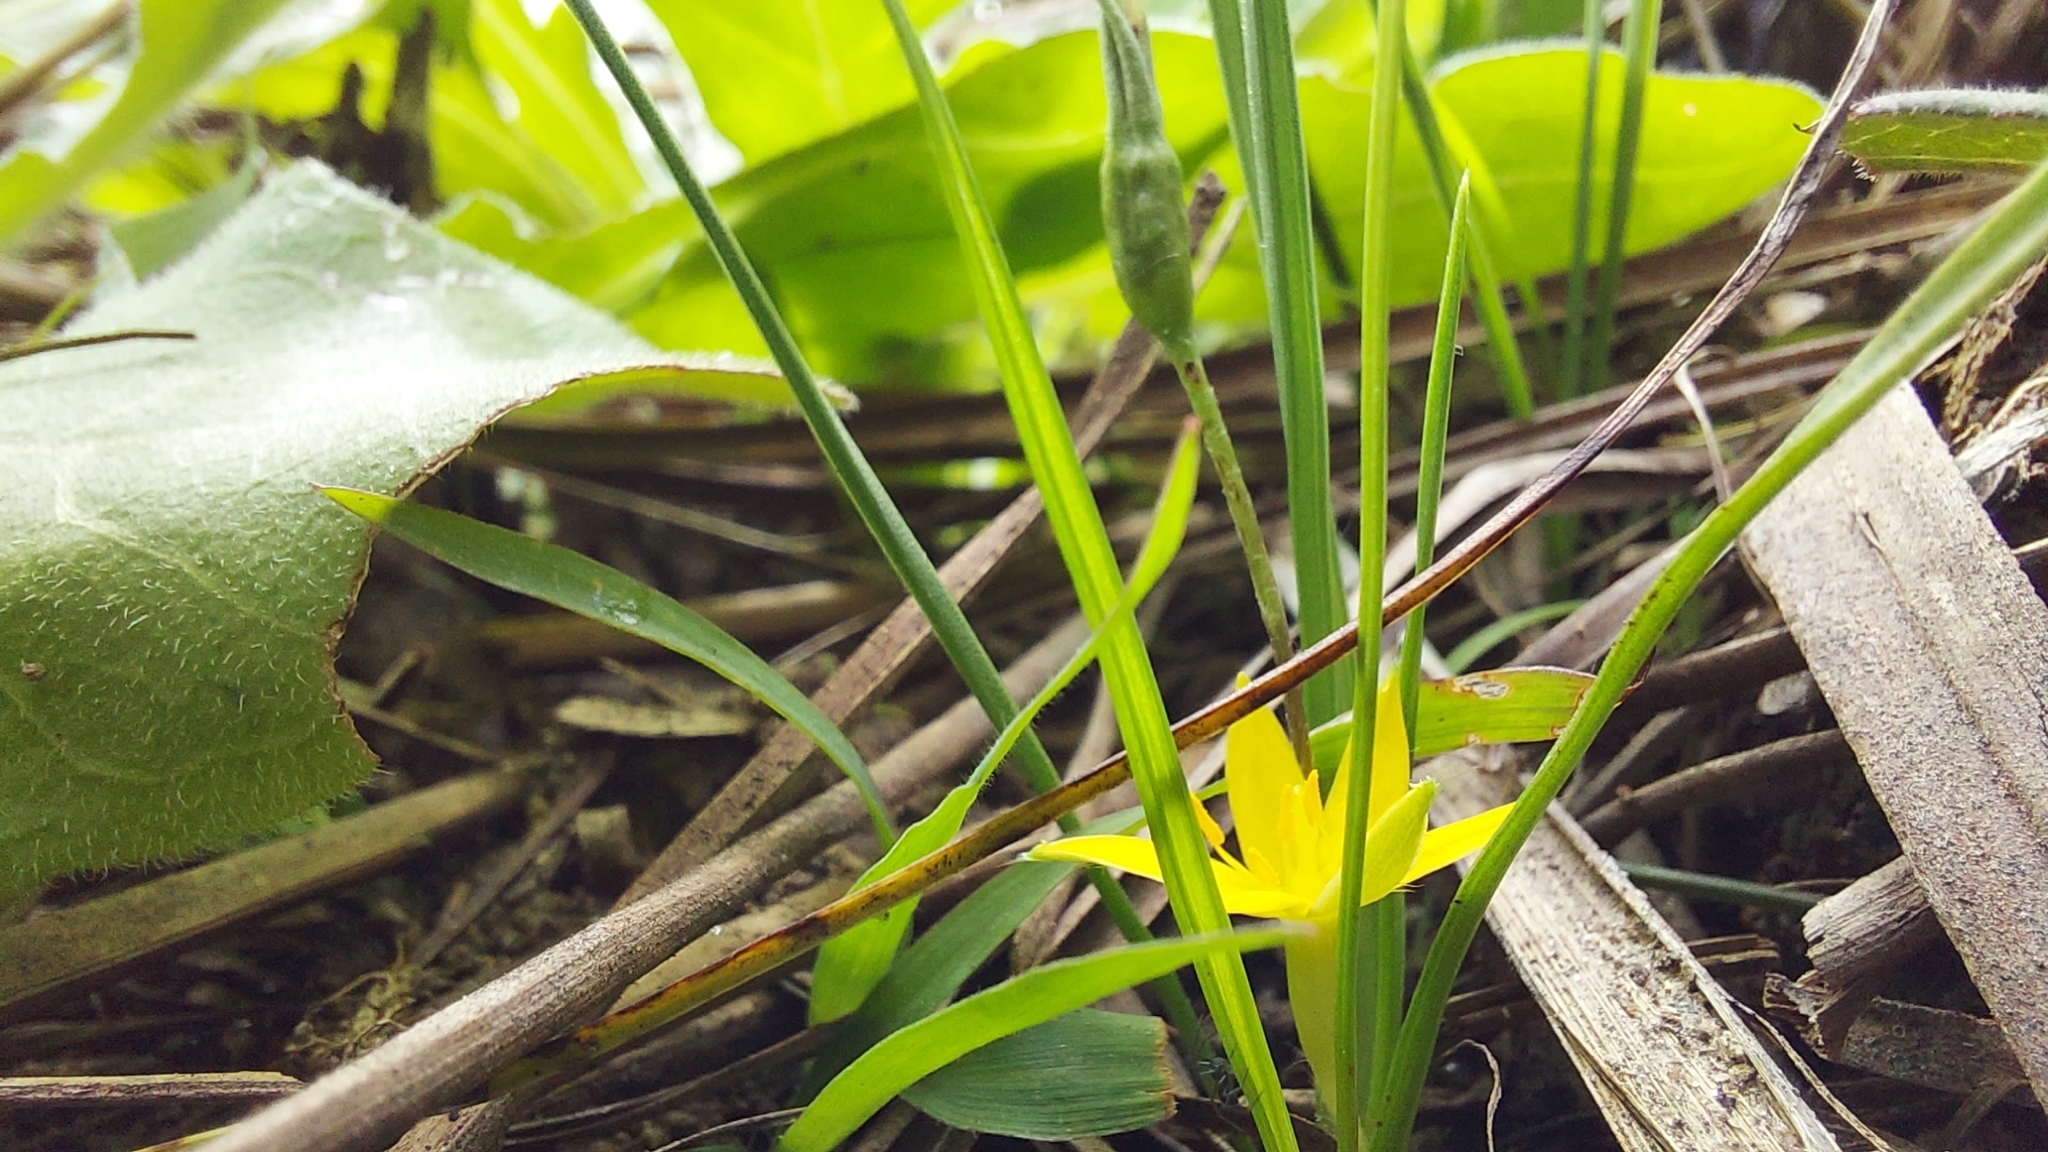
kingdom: Plantae
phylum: Tracheophyta
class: Liliopsida
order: Asparagales
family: Hypoxidaceae
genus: Hypoxis
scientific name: Hypoxis wrightii
